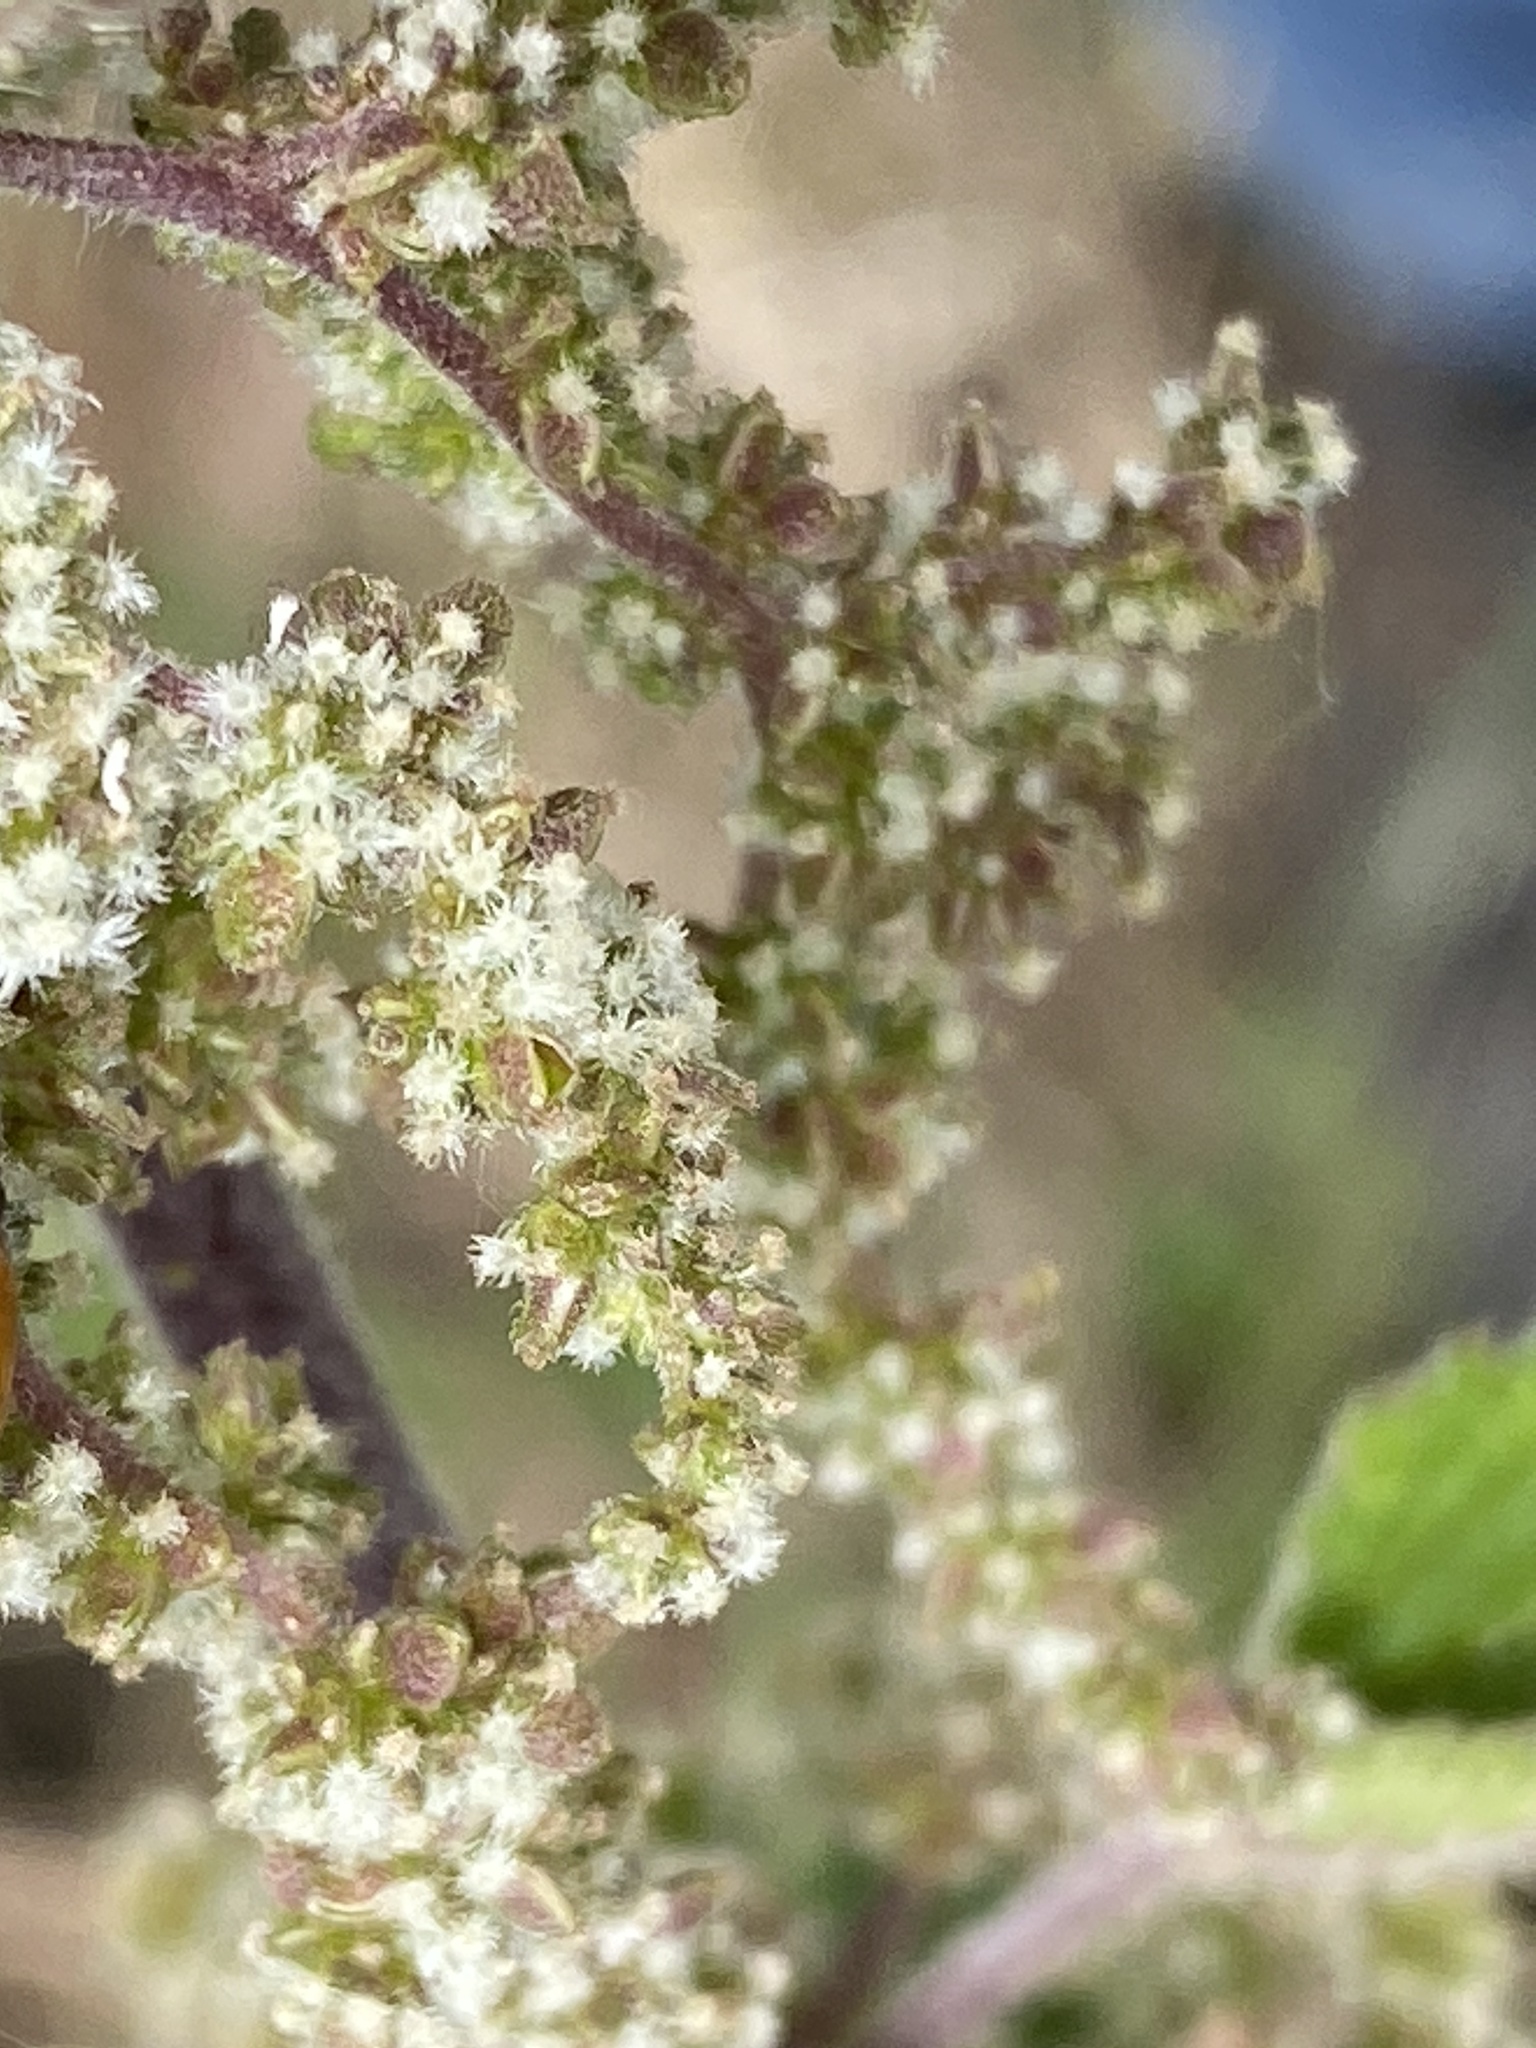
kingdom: Plantae
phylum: Tracheophyta
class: Magnoliopsida
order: Rosales
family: Urticaceae
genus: Urtica
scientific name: Urtica dioica
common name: Common nettle
